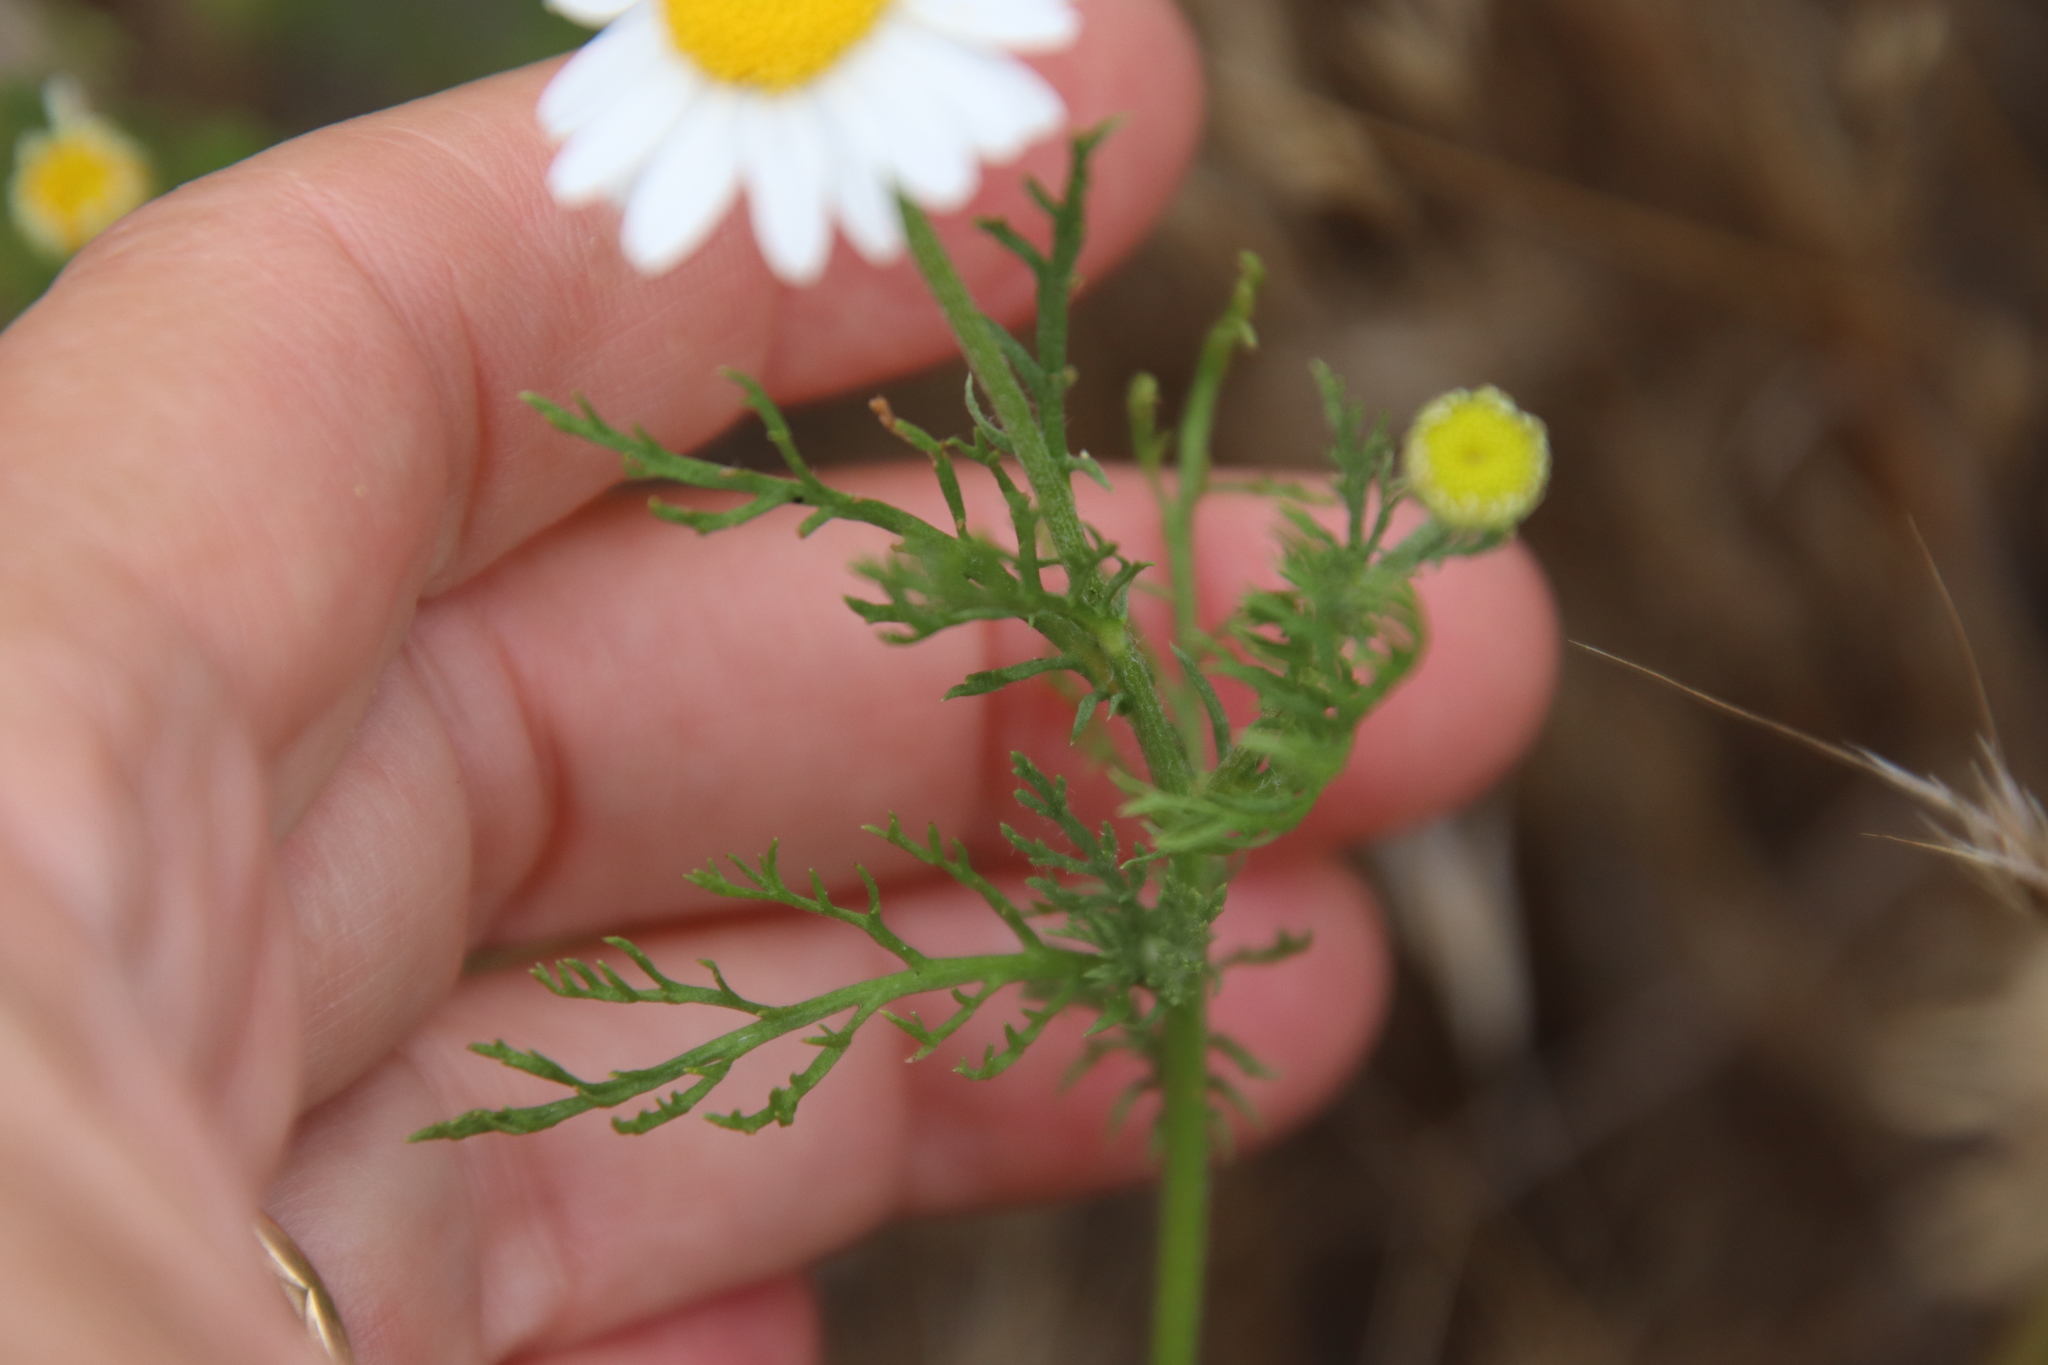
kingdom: Plantae
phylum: Tracheophyta
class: Magnoliopsida
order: Asterales
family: Asteraceae
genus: Anthemis
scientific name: Anthemis cotula
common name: Stinking chamomile
